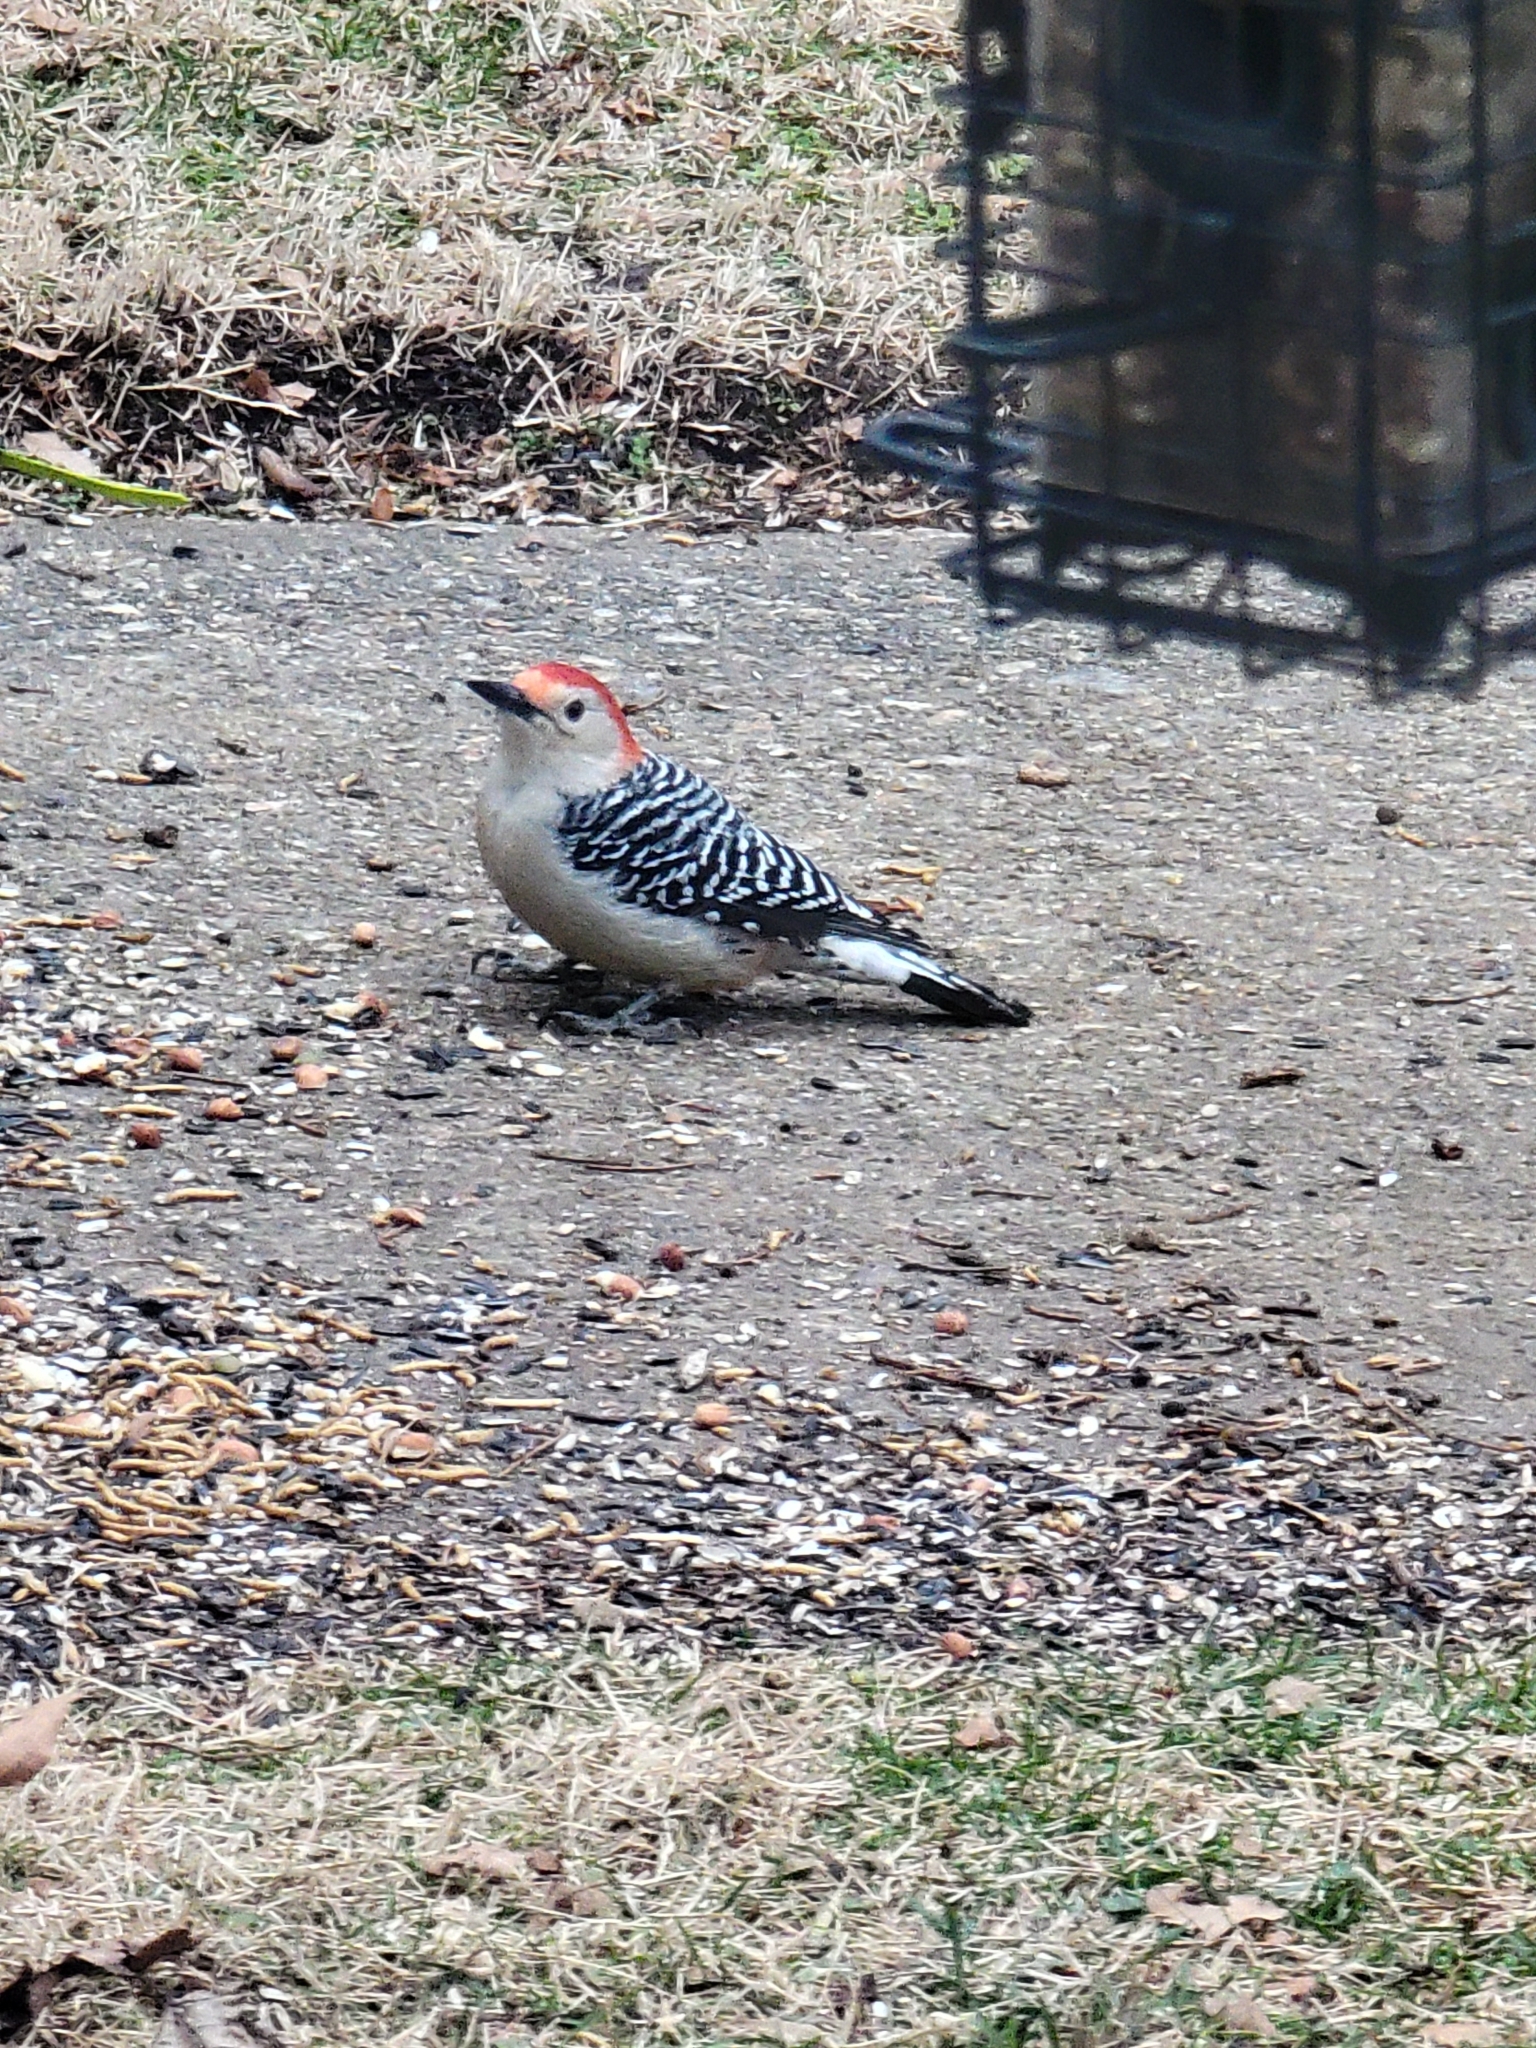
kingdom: Animalia
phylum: Chordata
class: Aves
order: Piciformes
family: Picidae
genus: Melanerpes
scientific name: Melanerpes carolinus
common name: Red-bellied woodpecker
